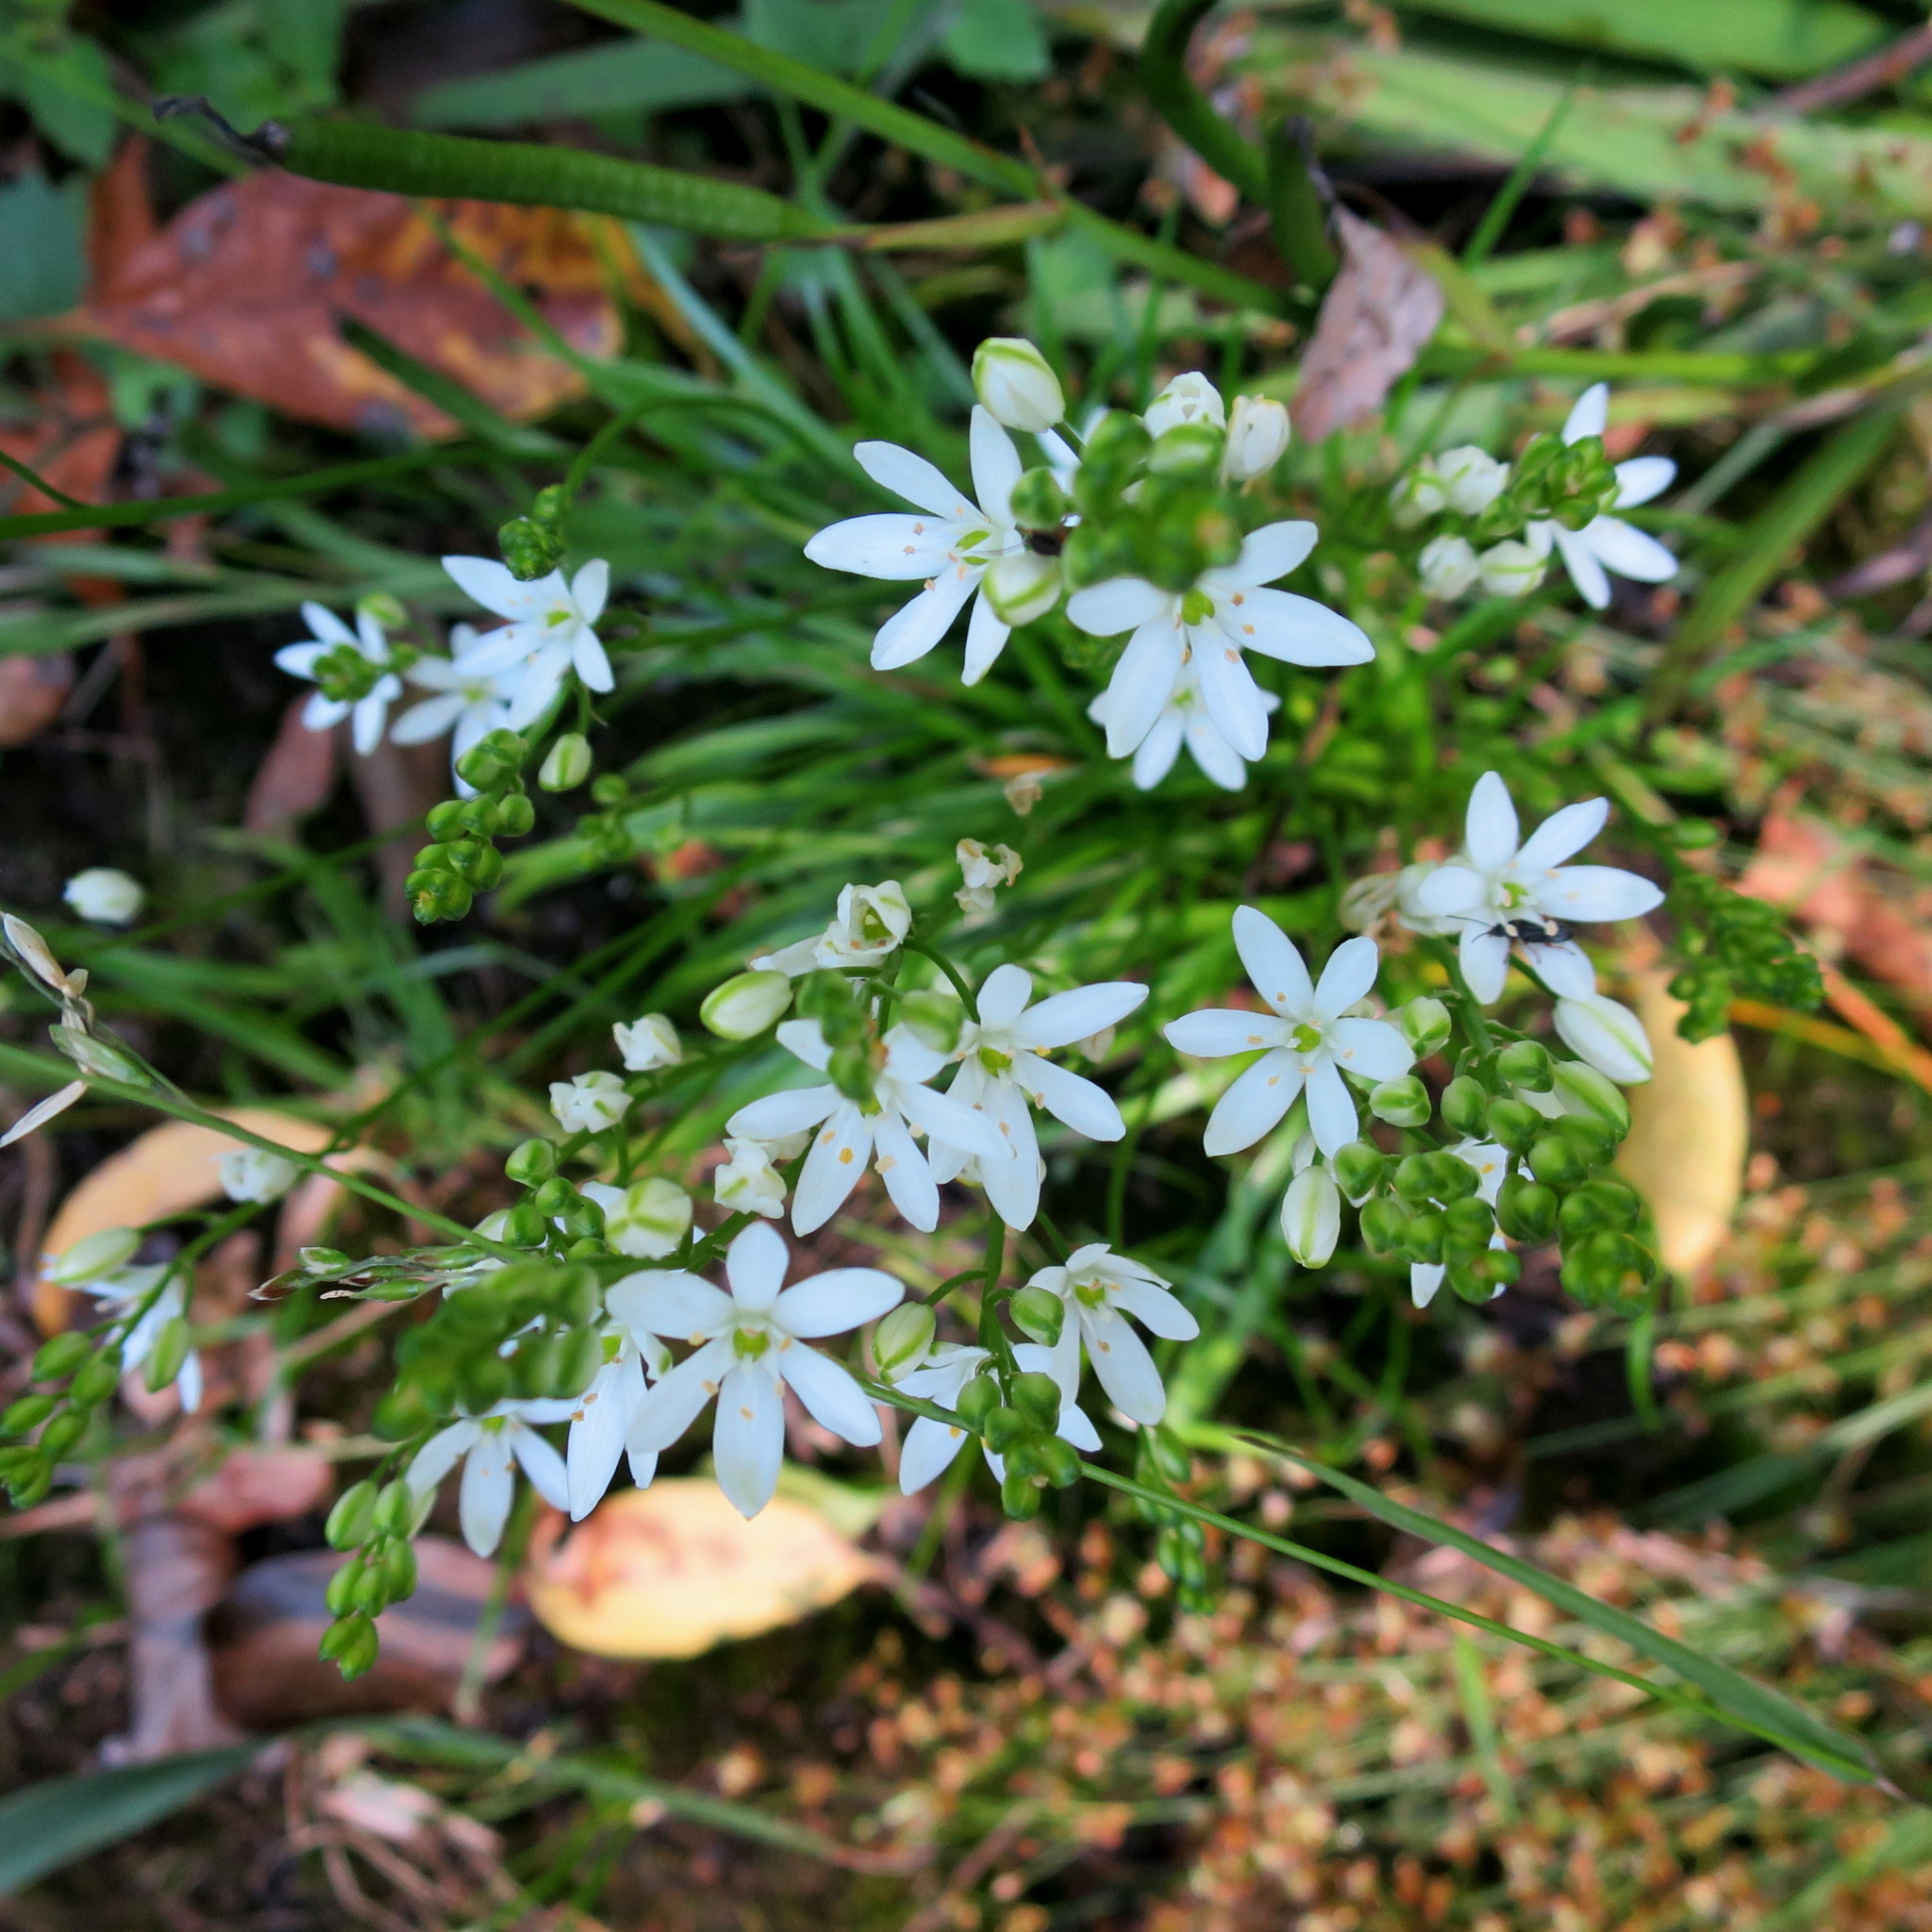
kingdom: Plantae
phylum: Tracheophyta
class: Liliopsida
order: Asparagales
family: Asparagaceae
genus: Ornithogalum
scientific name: Ornithogalum rogersii
